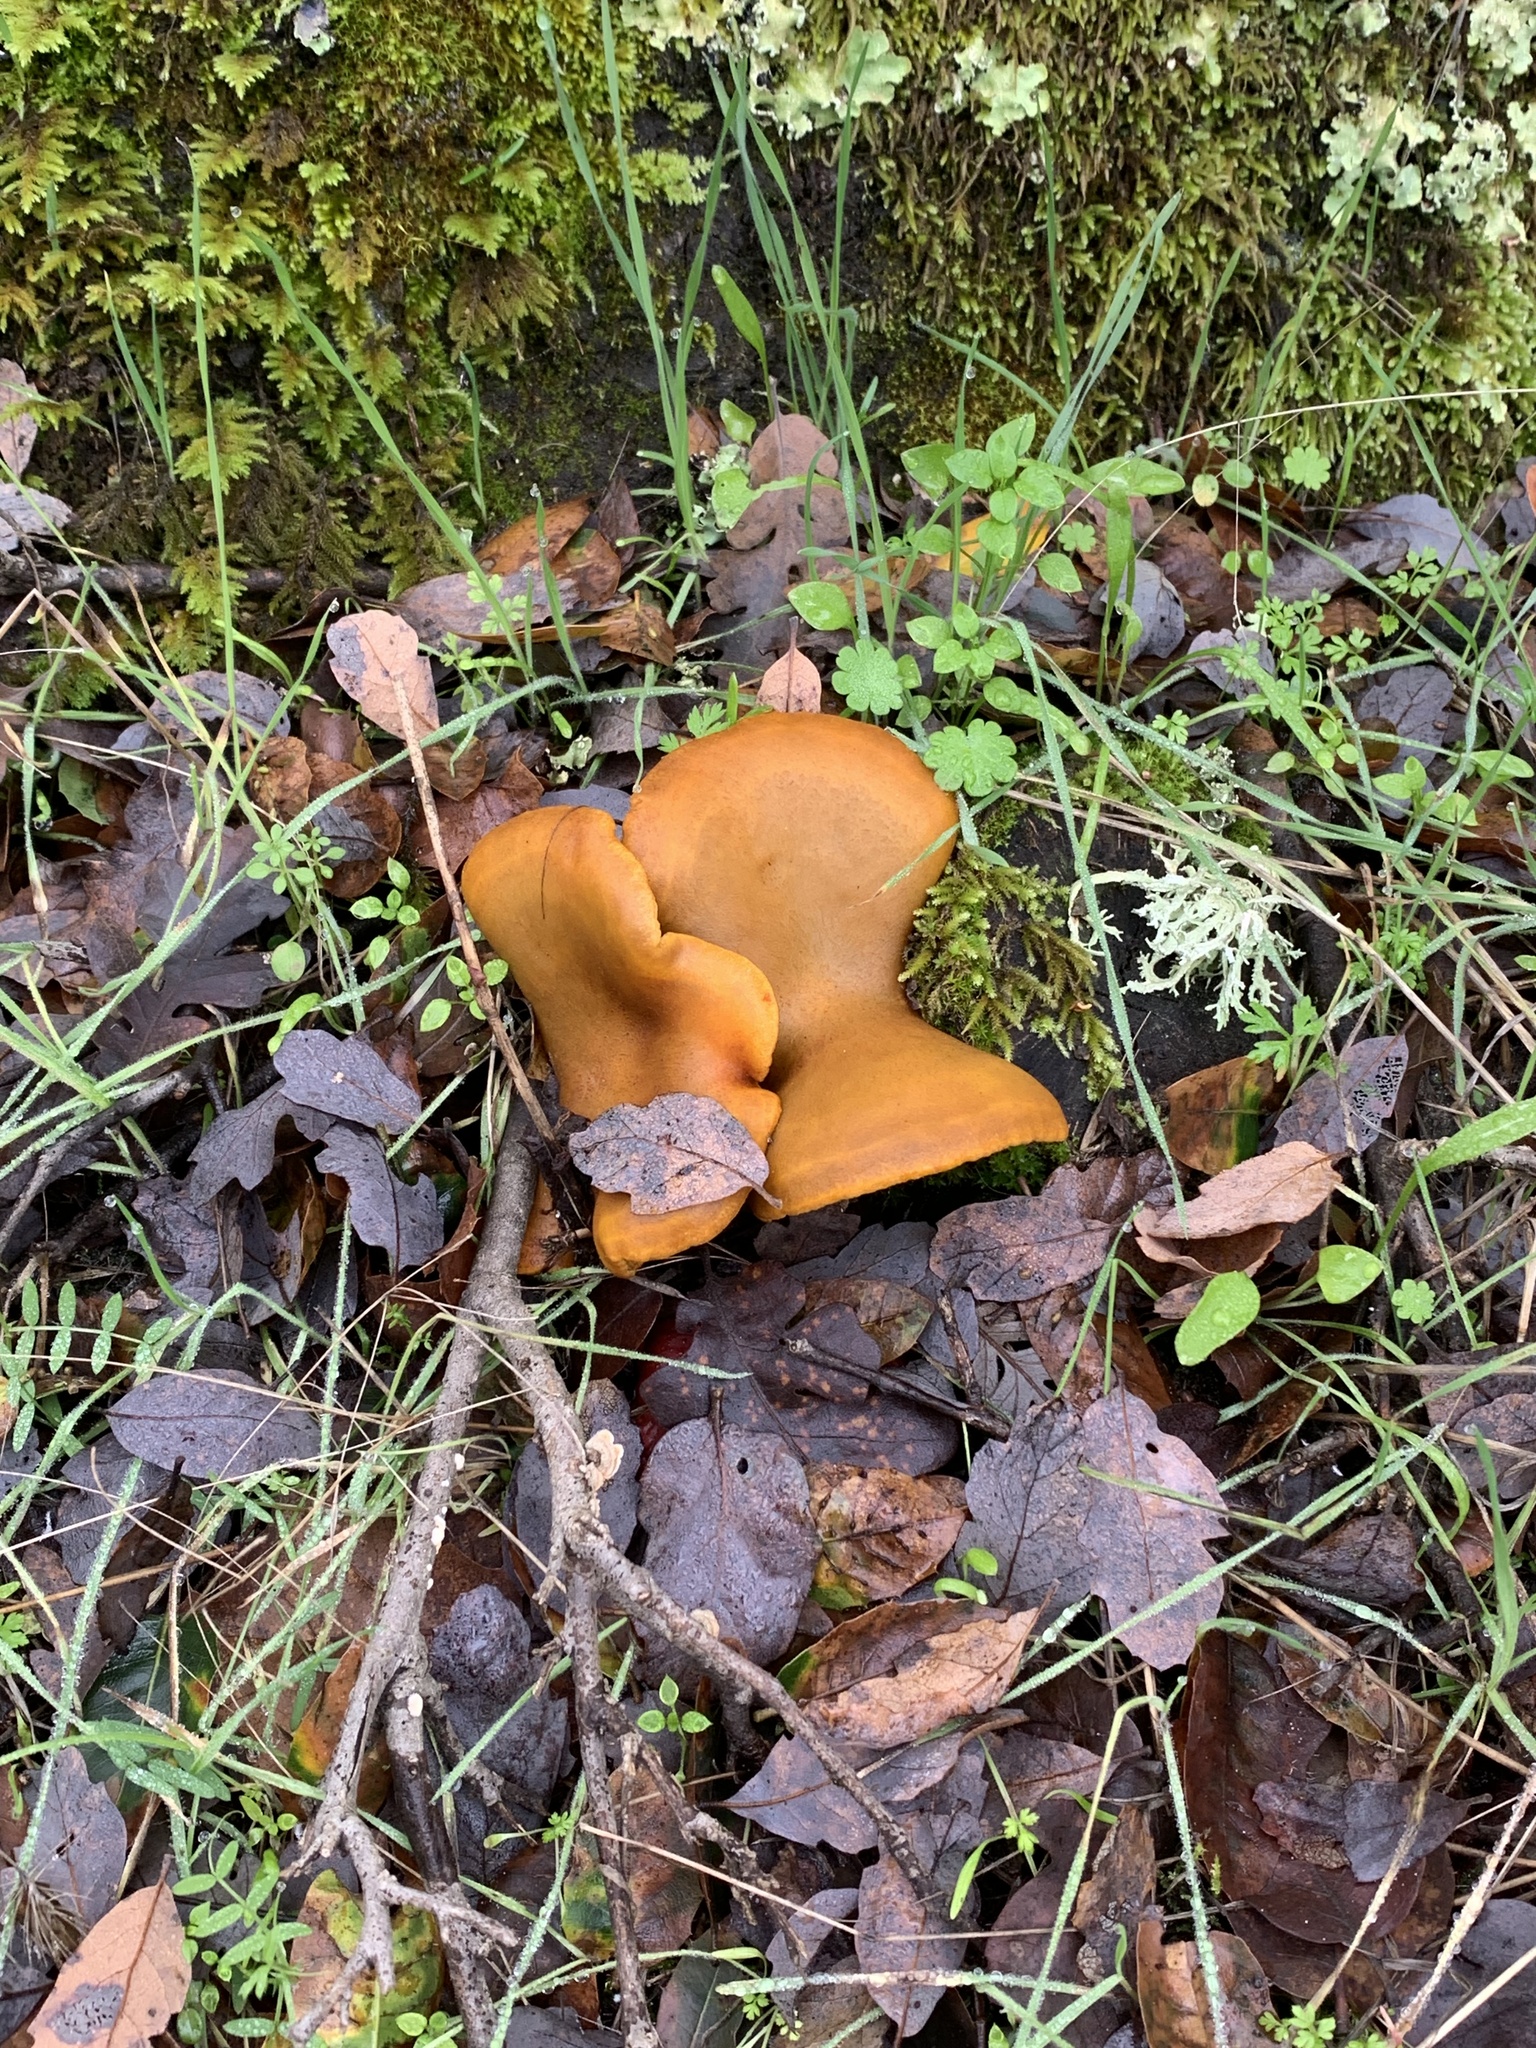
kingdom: Fungi
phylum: Basidiomycota
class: Agaricomycetes
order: Agaricales
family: Omphalotaceae
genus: Omphalotus
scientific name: Omphalotus olivascens
